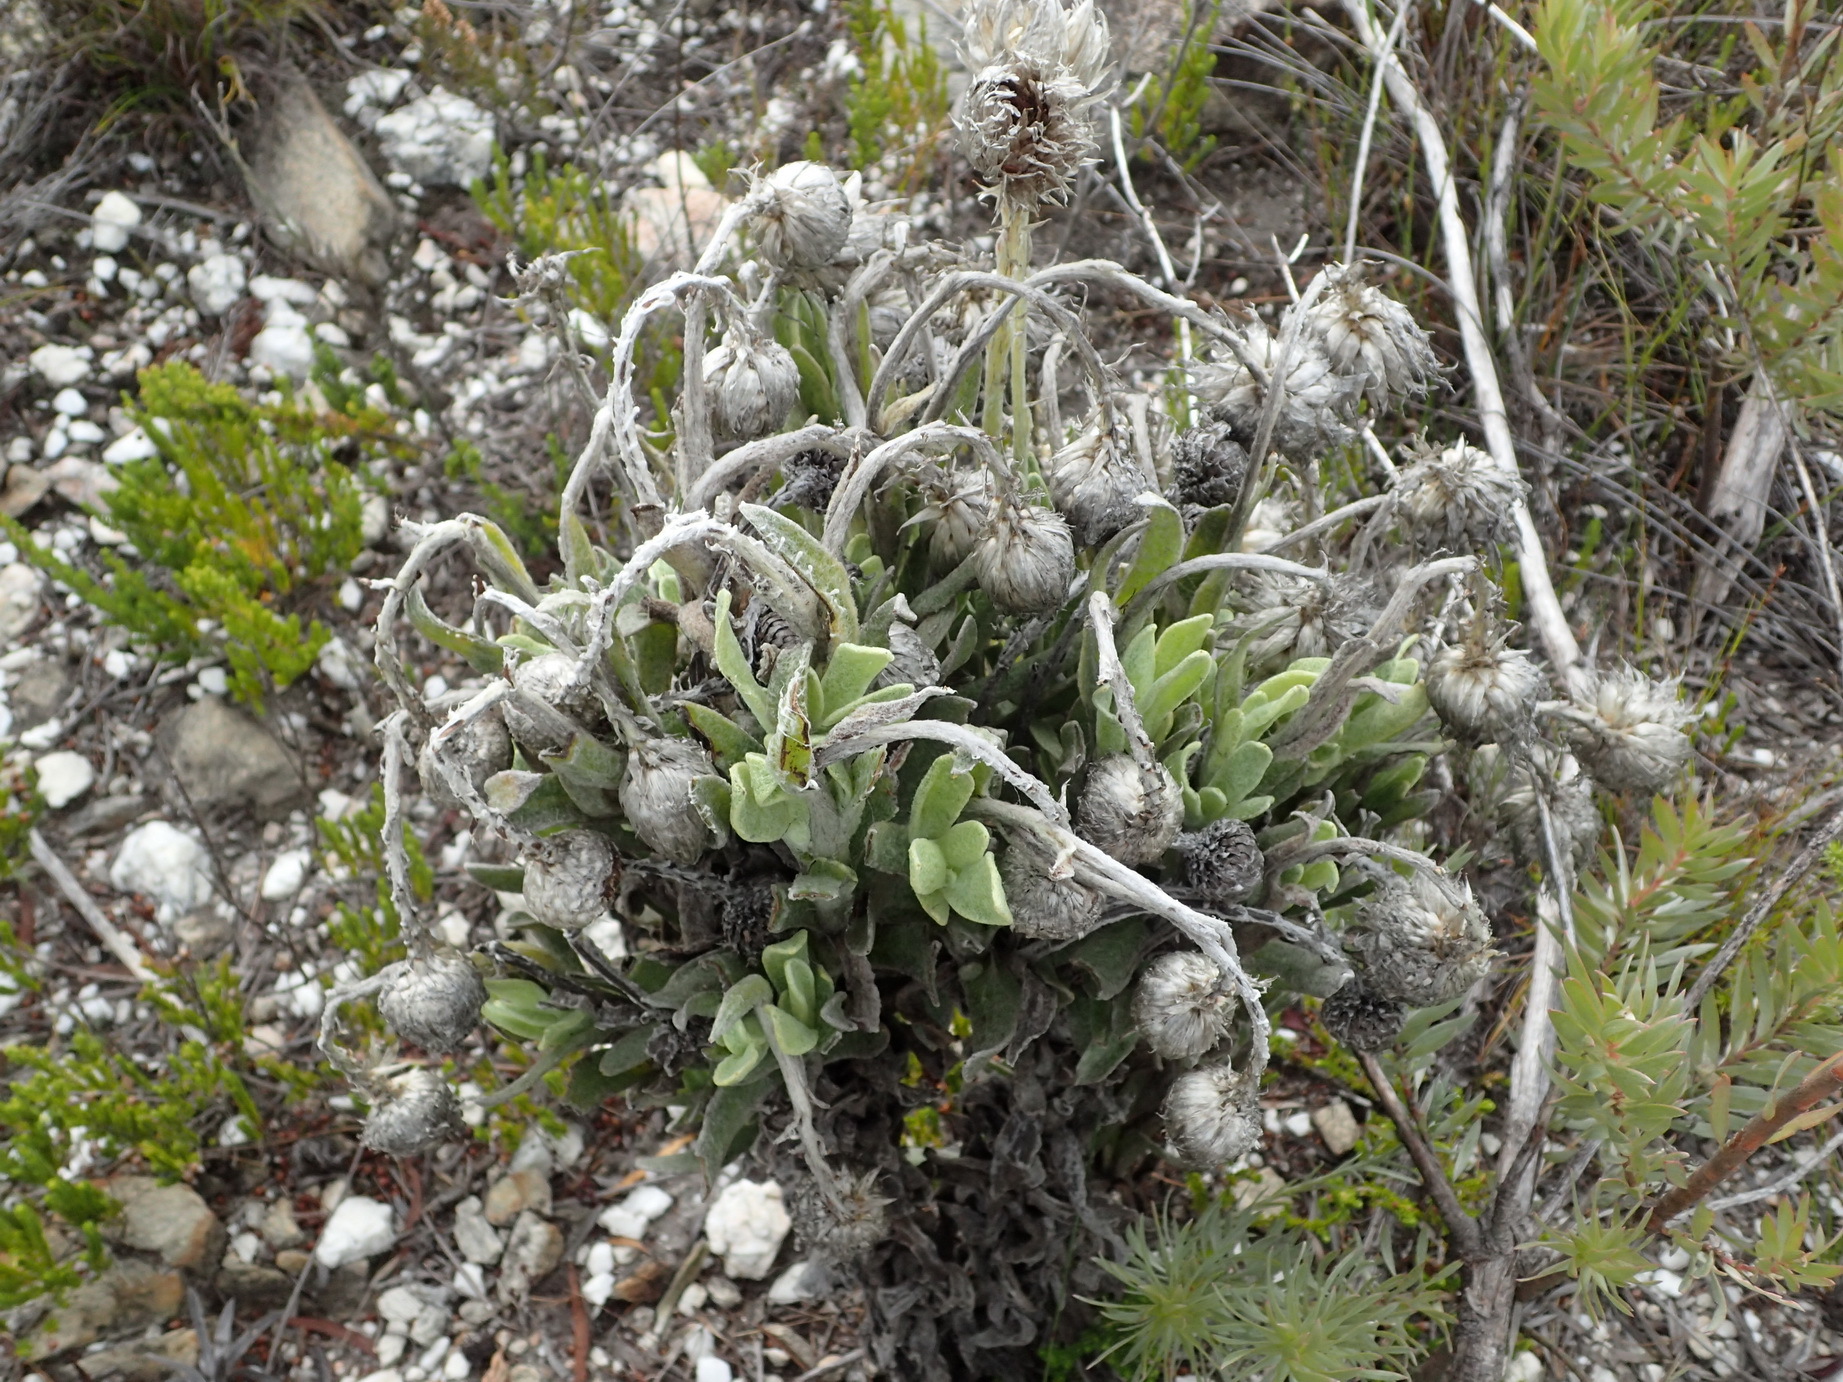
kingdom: Plantae
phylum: Tracheophyta
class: Magnoliopsida
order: Asterales
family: Asteraceae
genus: Syncarpha
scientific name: Syncarpha vestita
